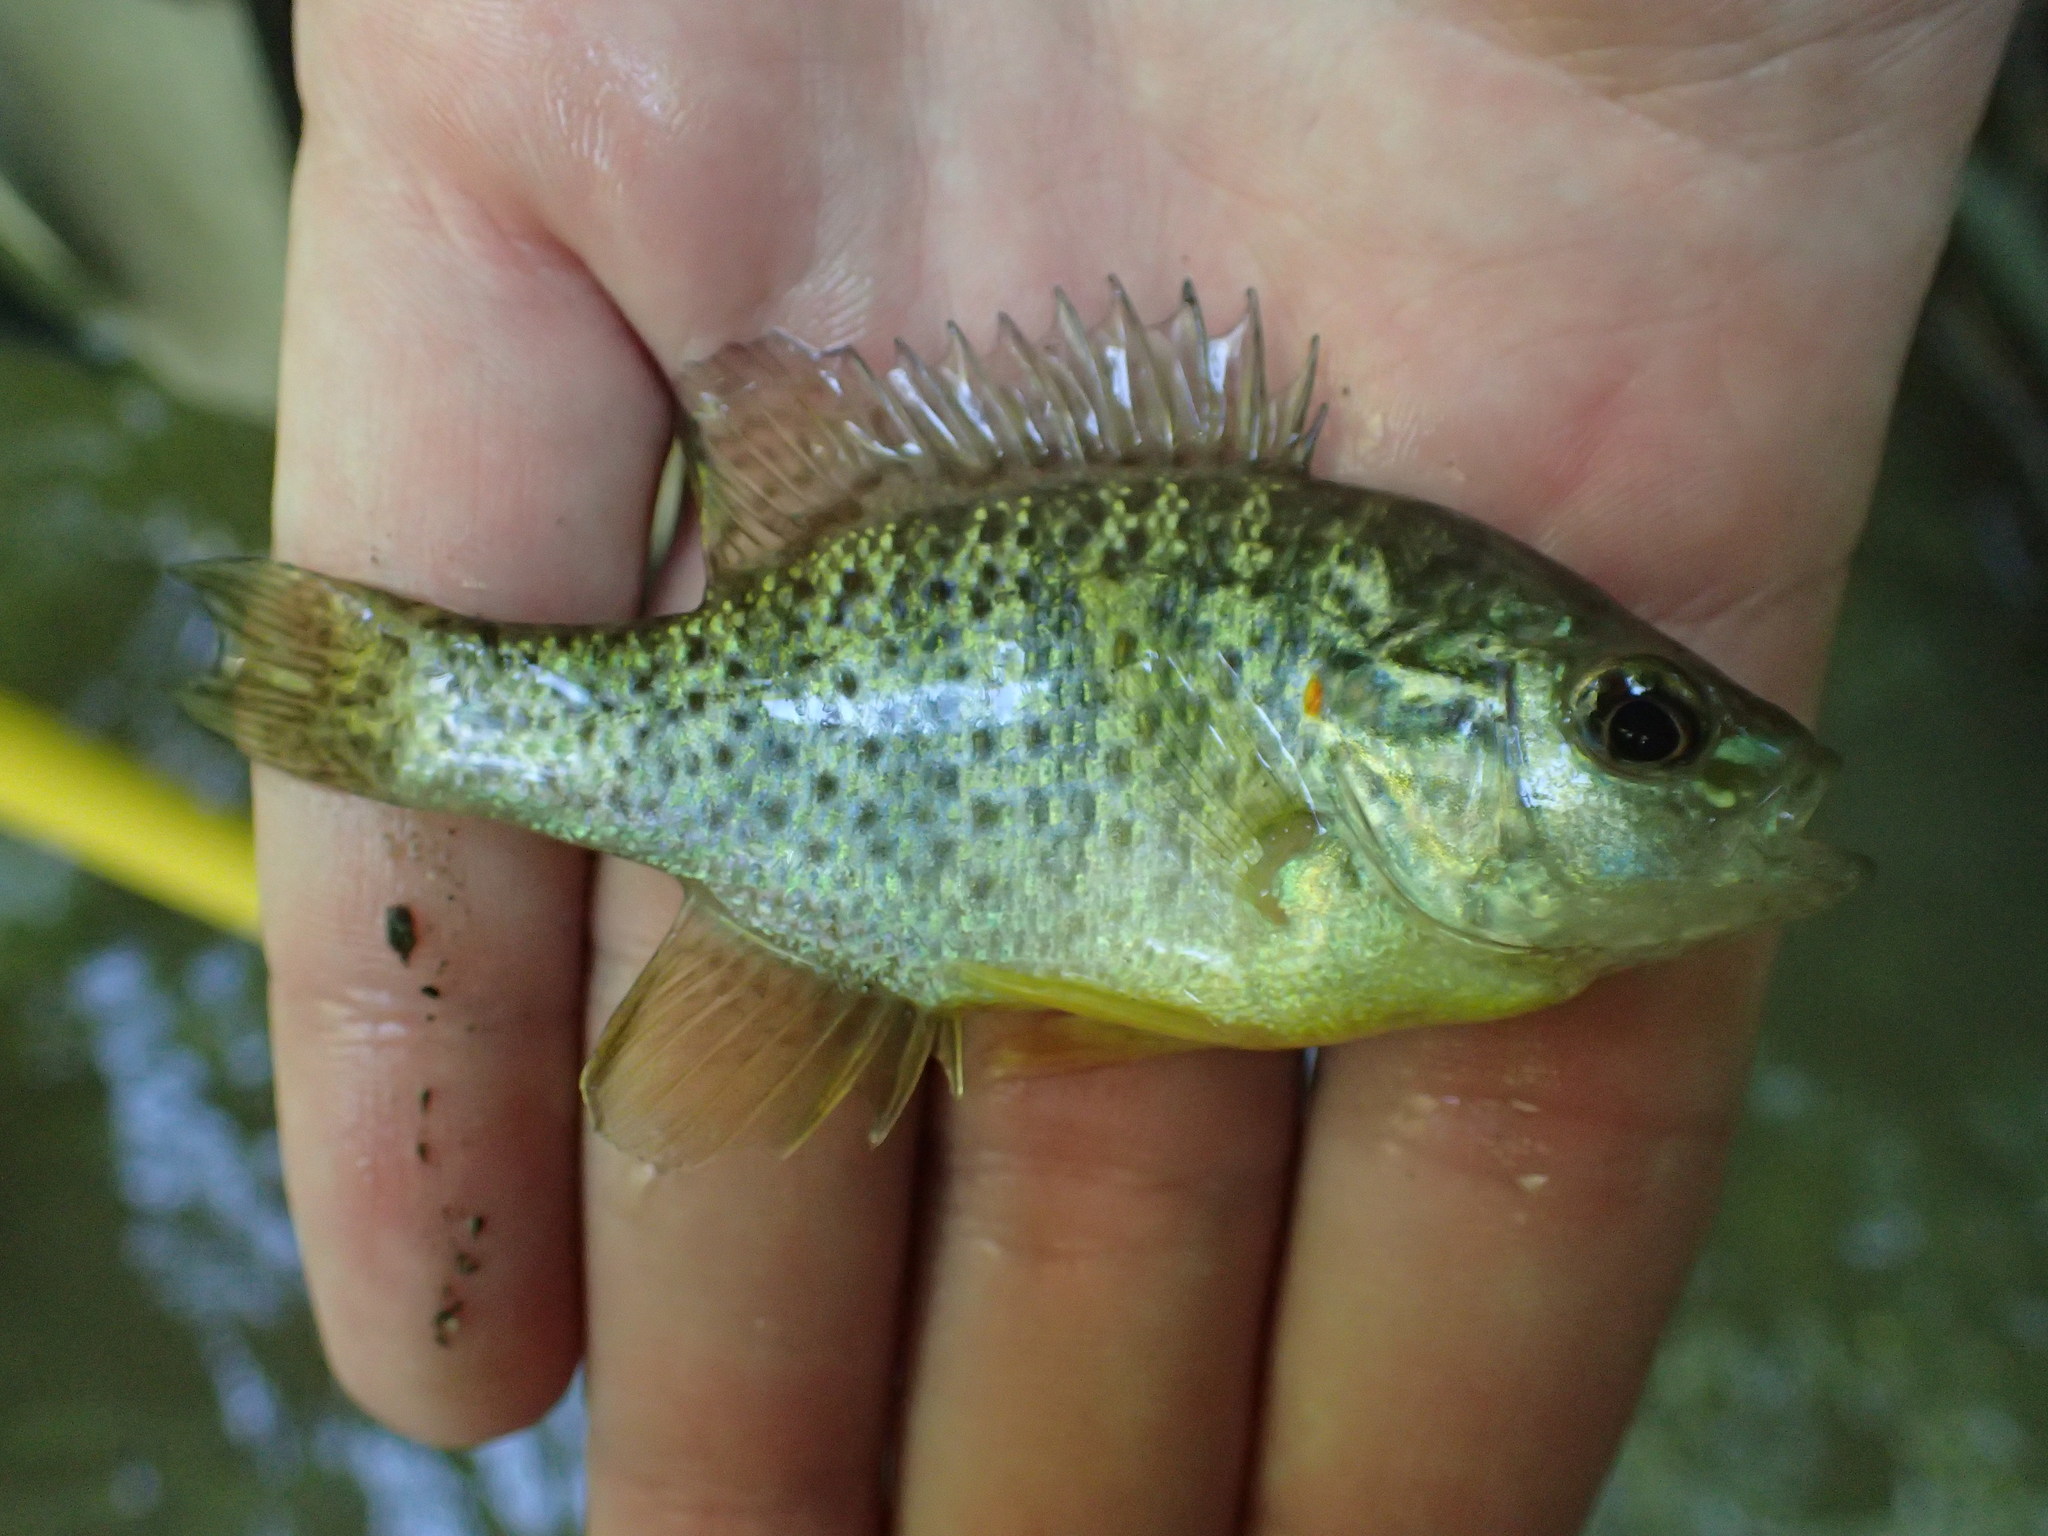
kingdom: Animalia
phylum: Chordata
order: Perciformes
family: Centrarchidae
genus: Lepomis
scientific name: Lepomis gibbosus
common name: Pumpkinseed
